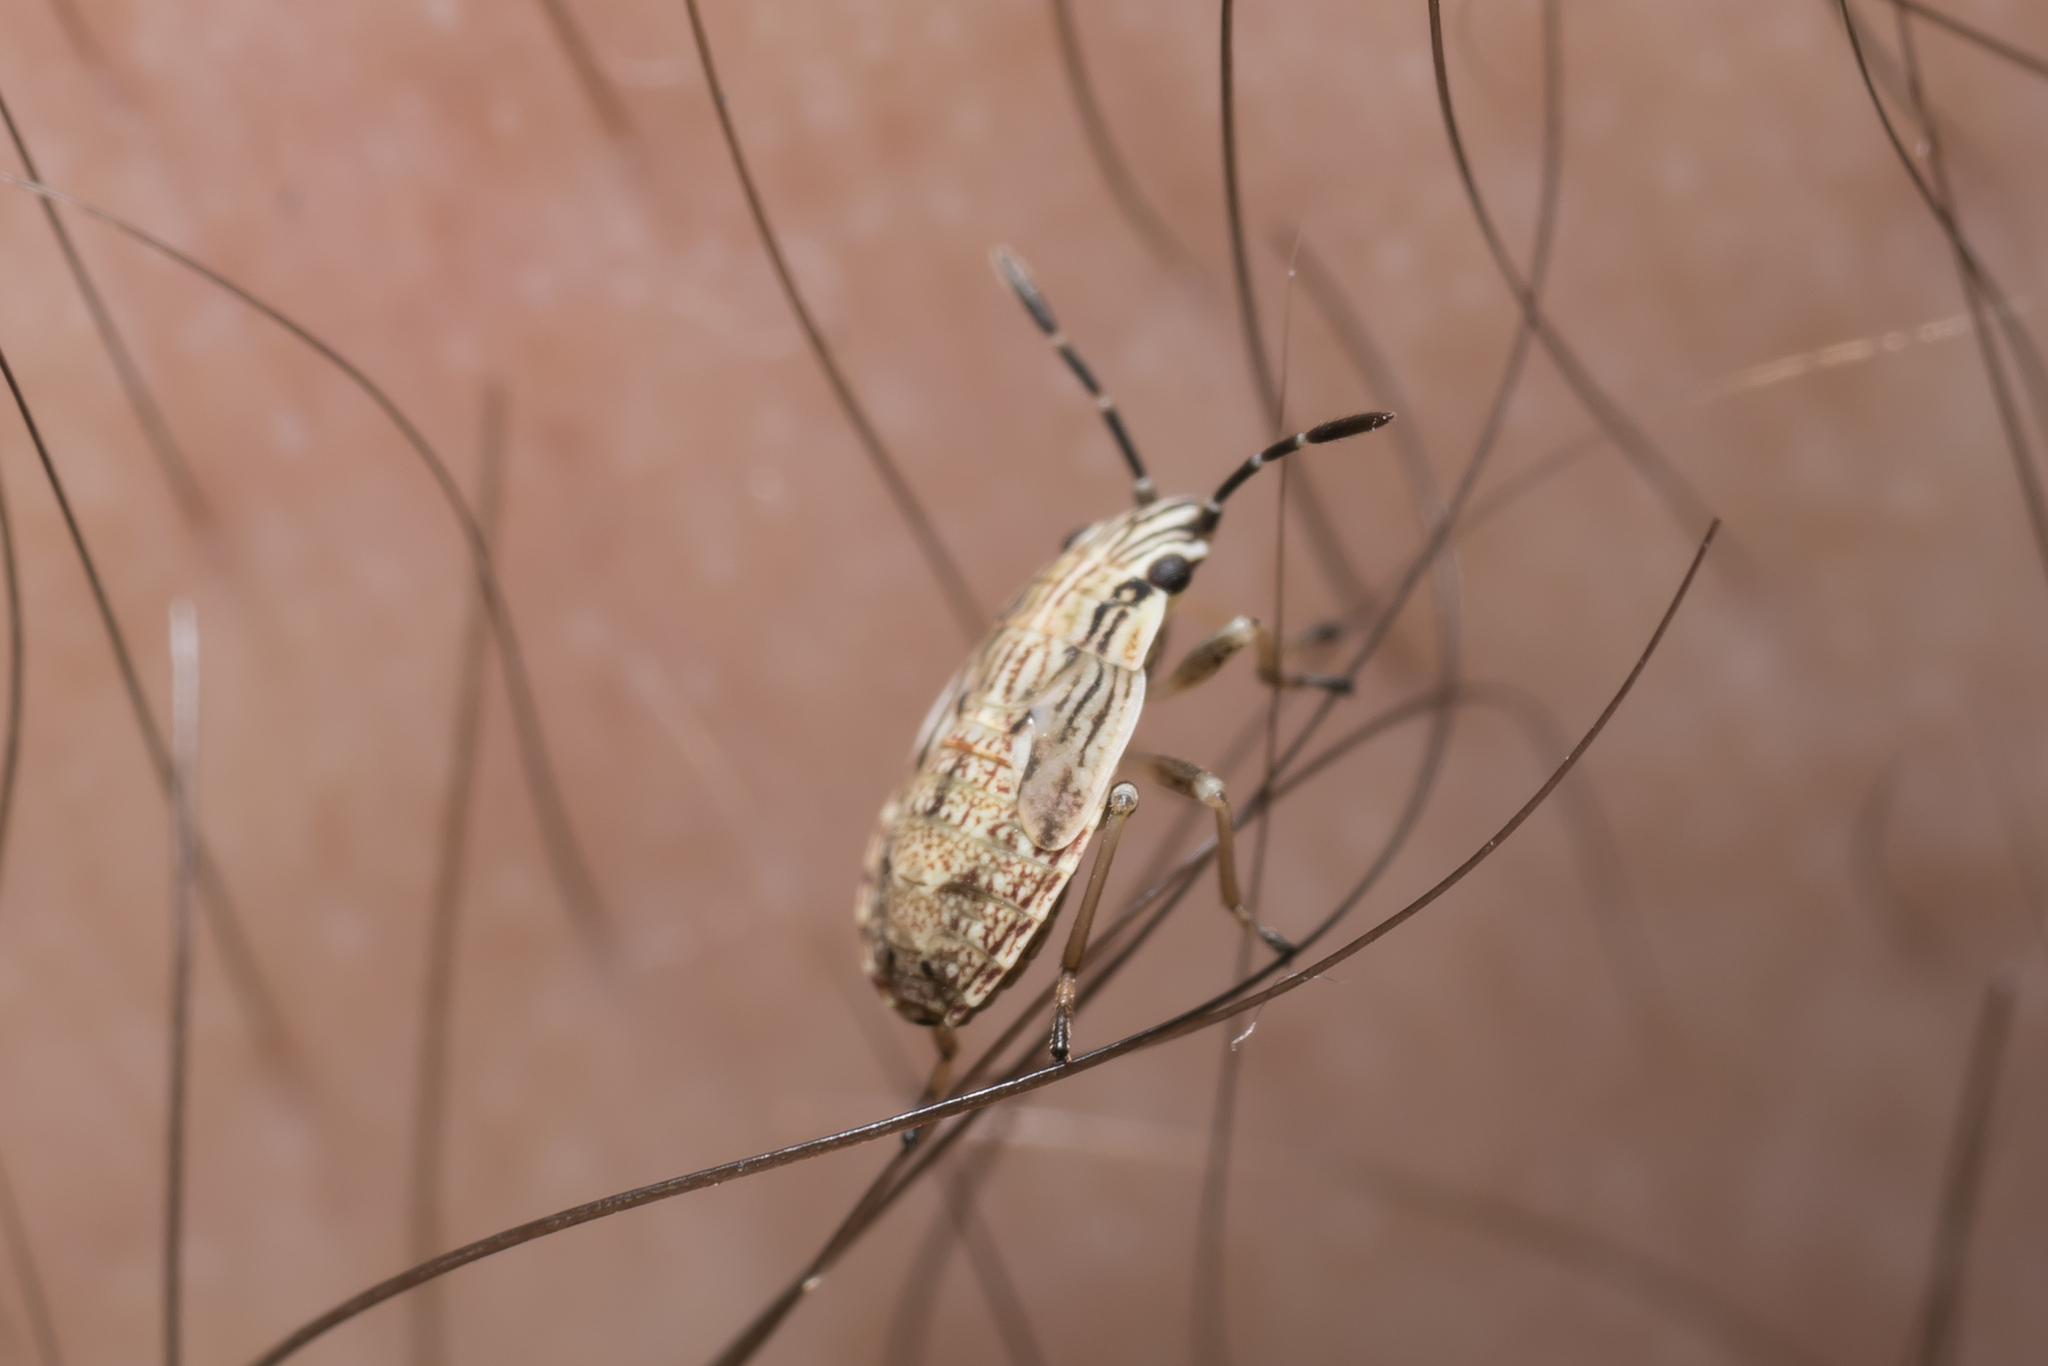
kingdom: Animalia
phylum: Arthropoda
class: Insecta
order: Hemiptera
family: Lygaeidae
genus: Nysius
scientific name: Nysius
